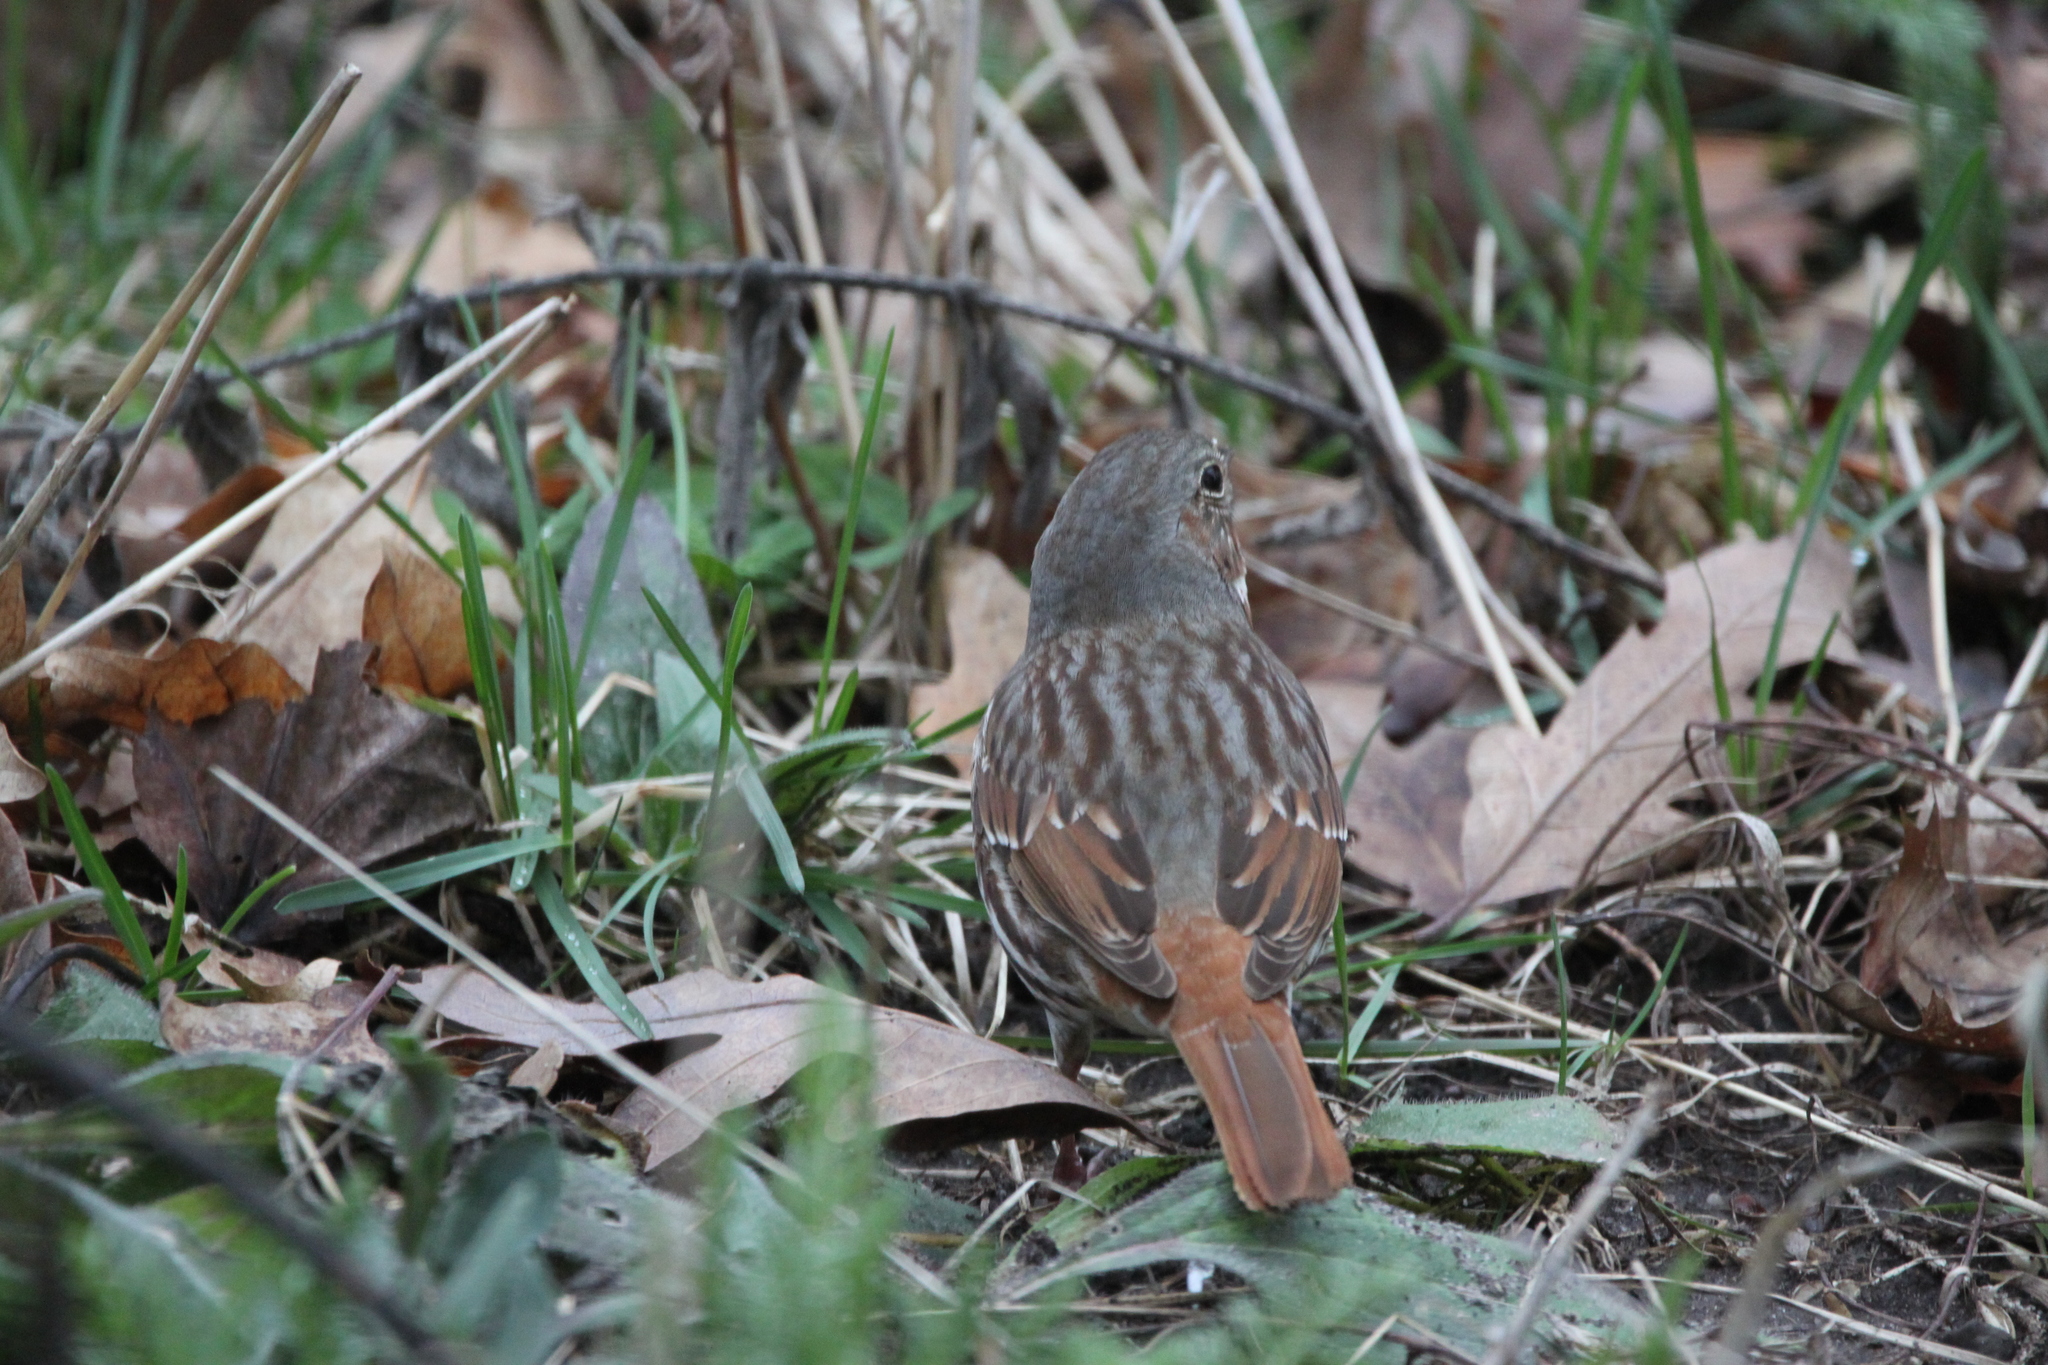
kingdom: Animalia
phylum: Chordata
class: Aves
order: Passeriformes
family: Passerellidae
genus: Passerella
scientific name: Passerella iliaca
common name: Fox sparrow
